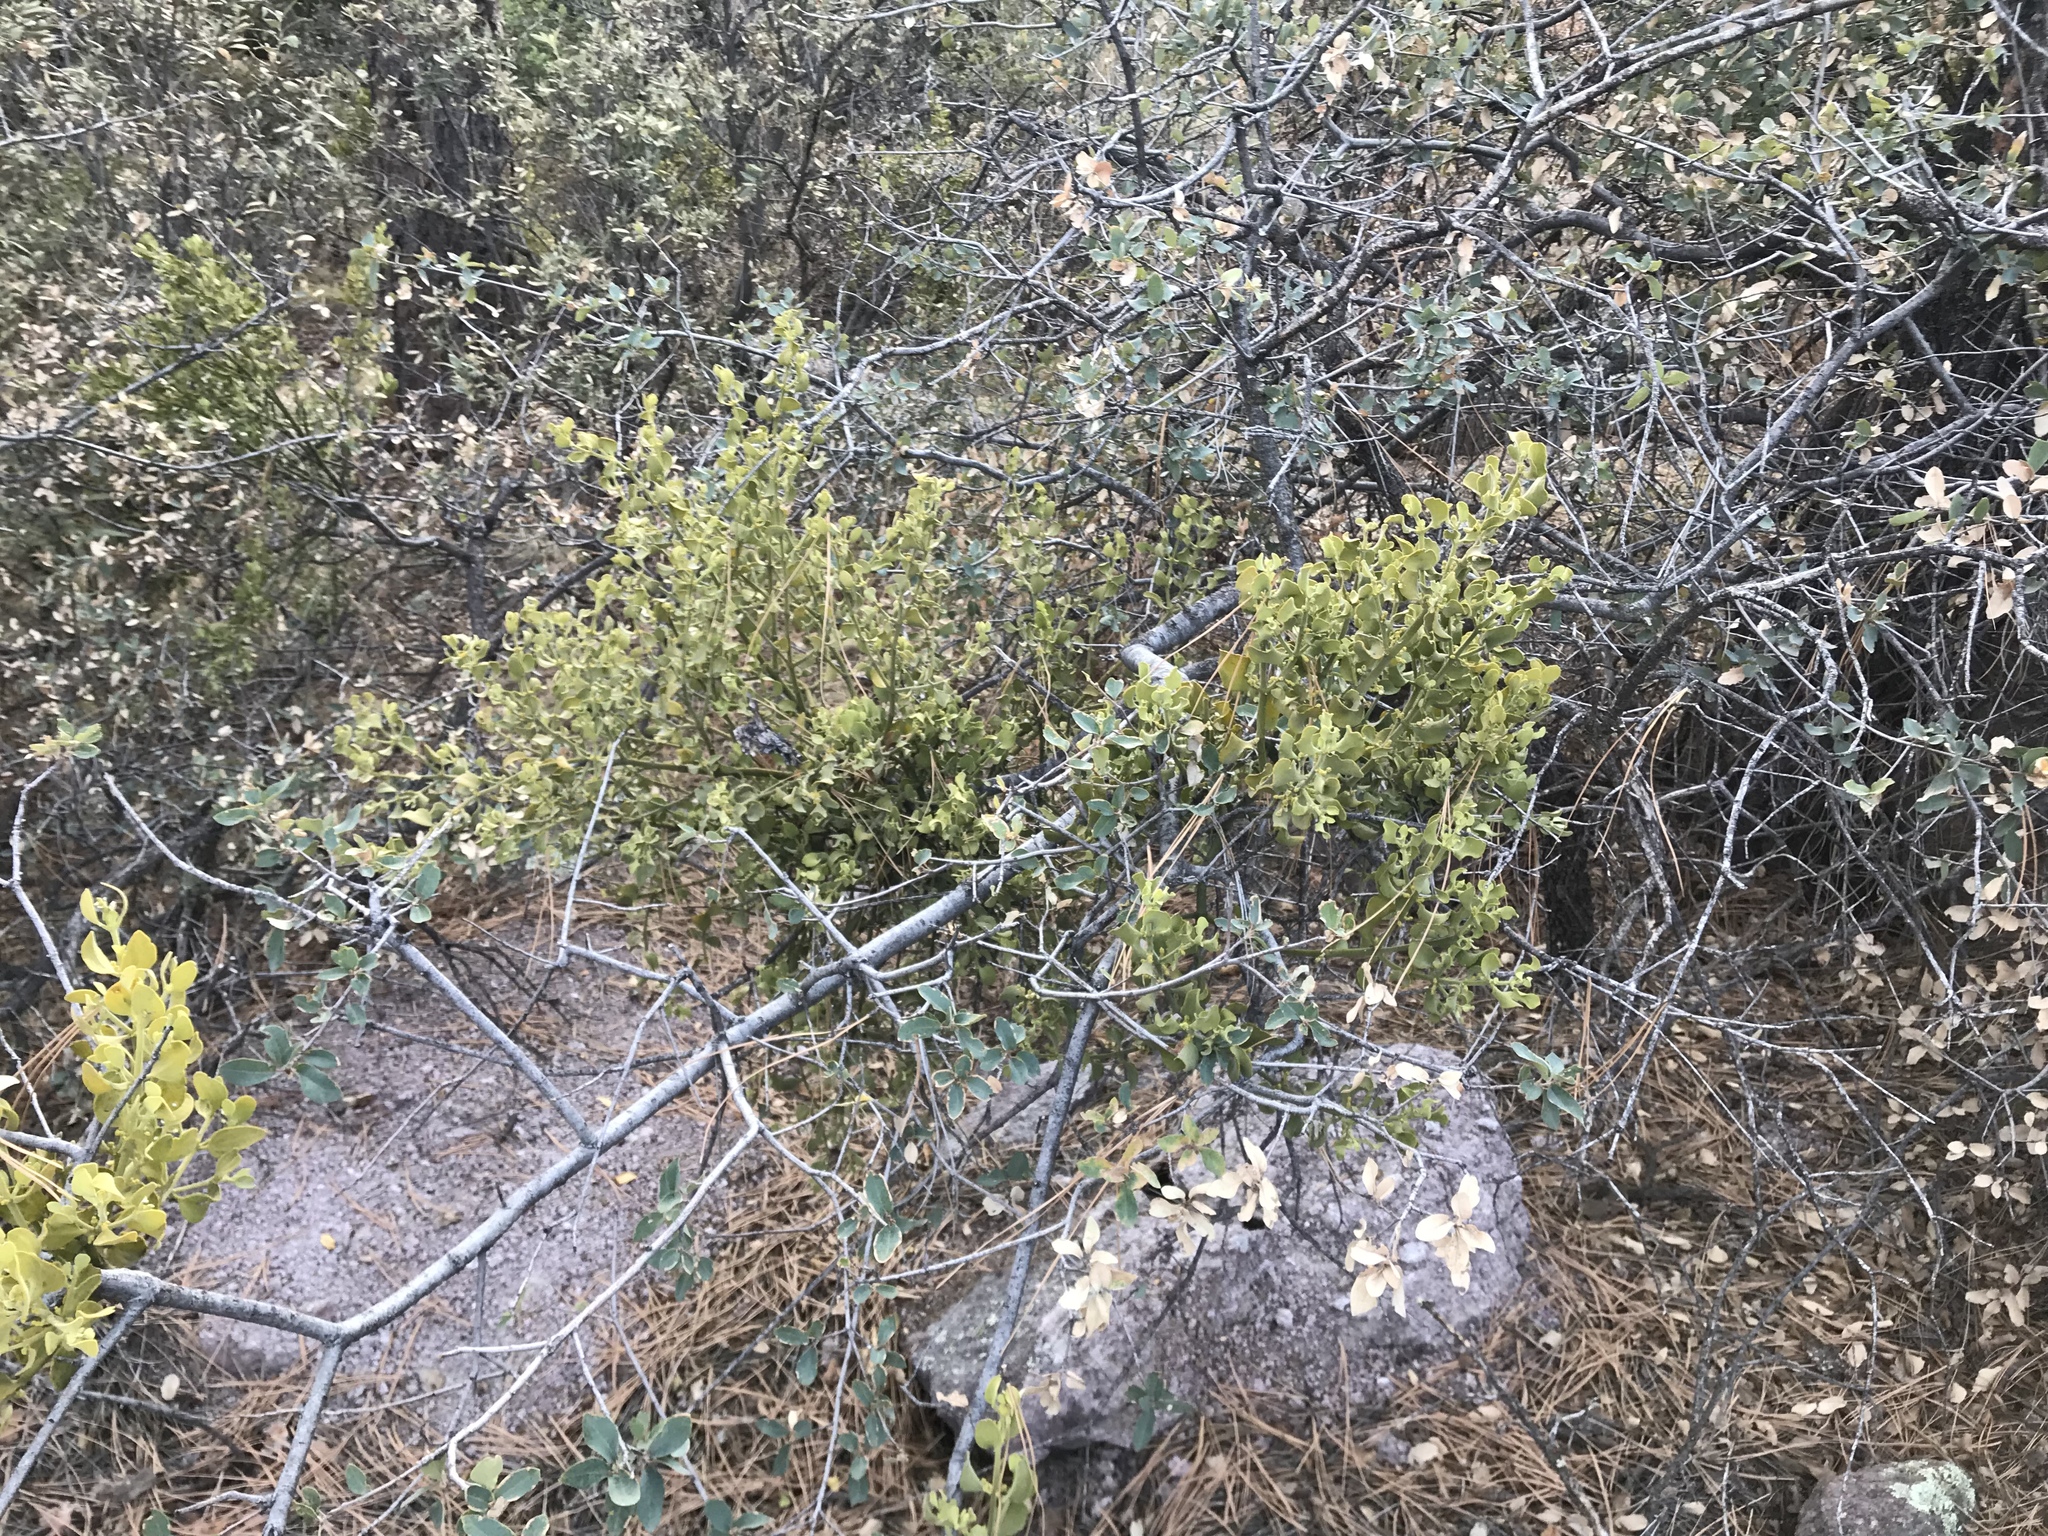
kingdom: Plantae
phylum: Tracheophyta
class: Magnoliopsida
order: Santalales
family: Viscaceae
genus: Phoradendron
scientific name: Phoradendron coryae
